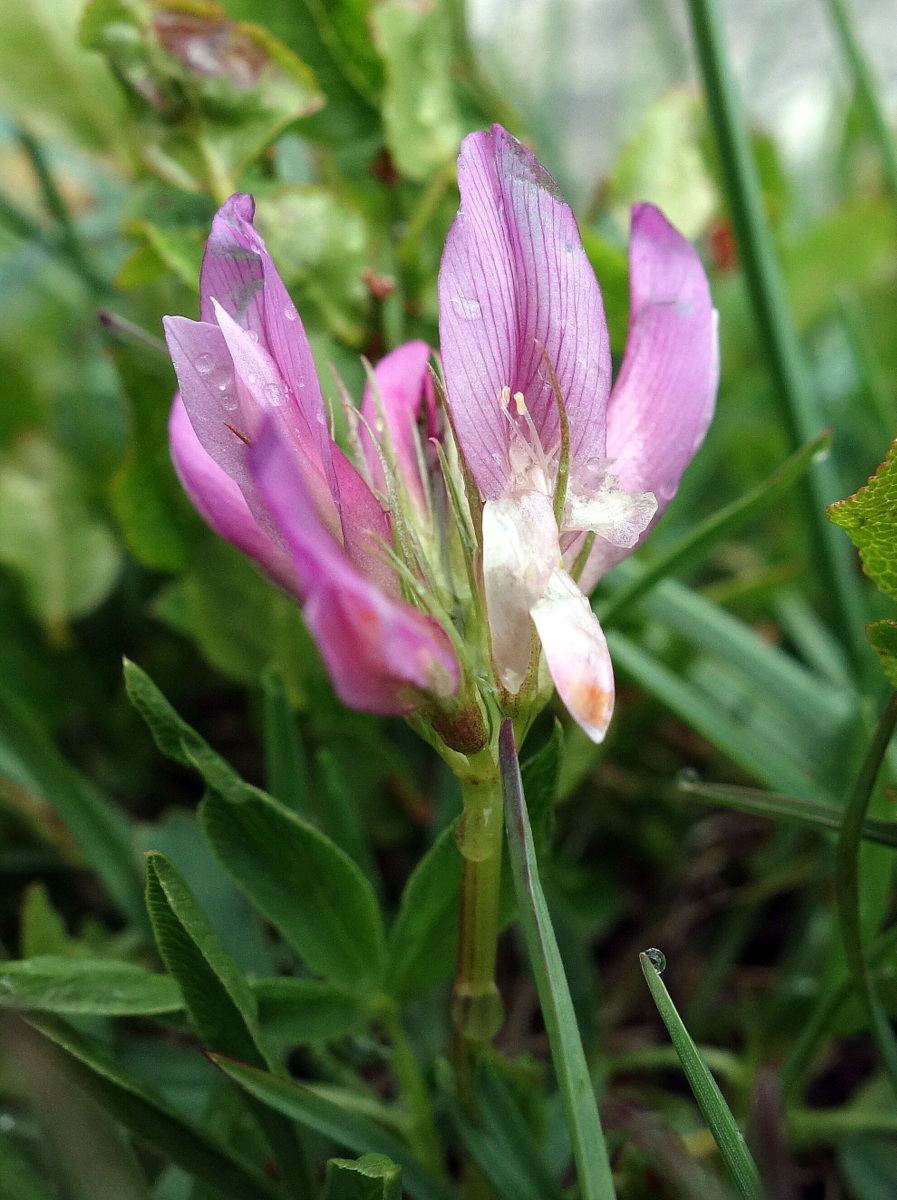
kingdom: Plantae
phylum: Tracheophyta
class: Magnoliopsida
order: Fabales
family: Fabaceae
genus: Trifolium
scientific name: Trifolium alpinum
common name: Alpine clover
